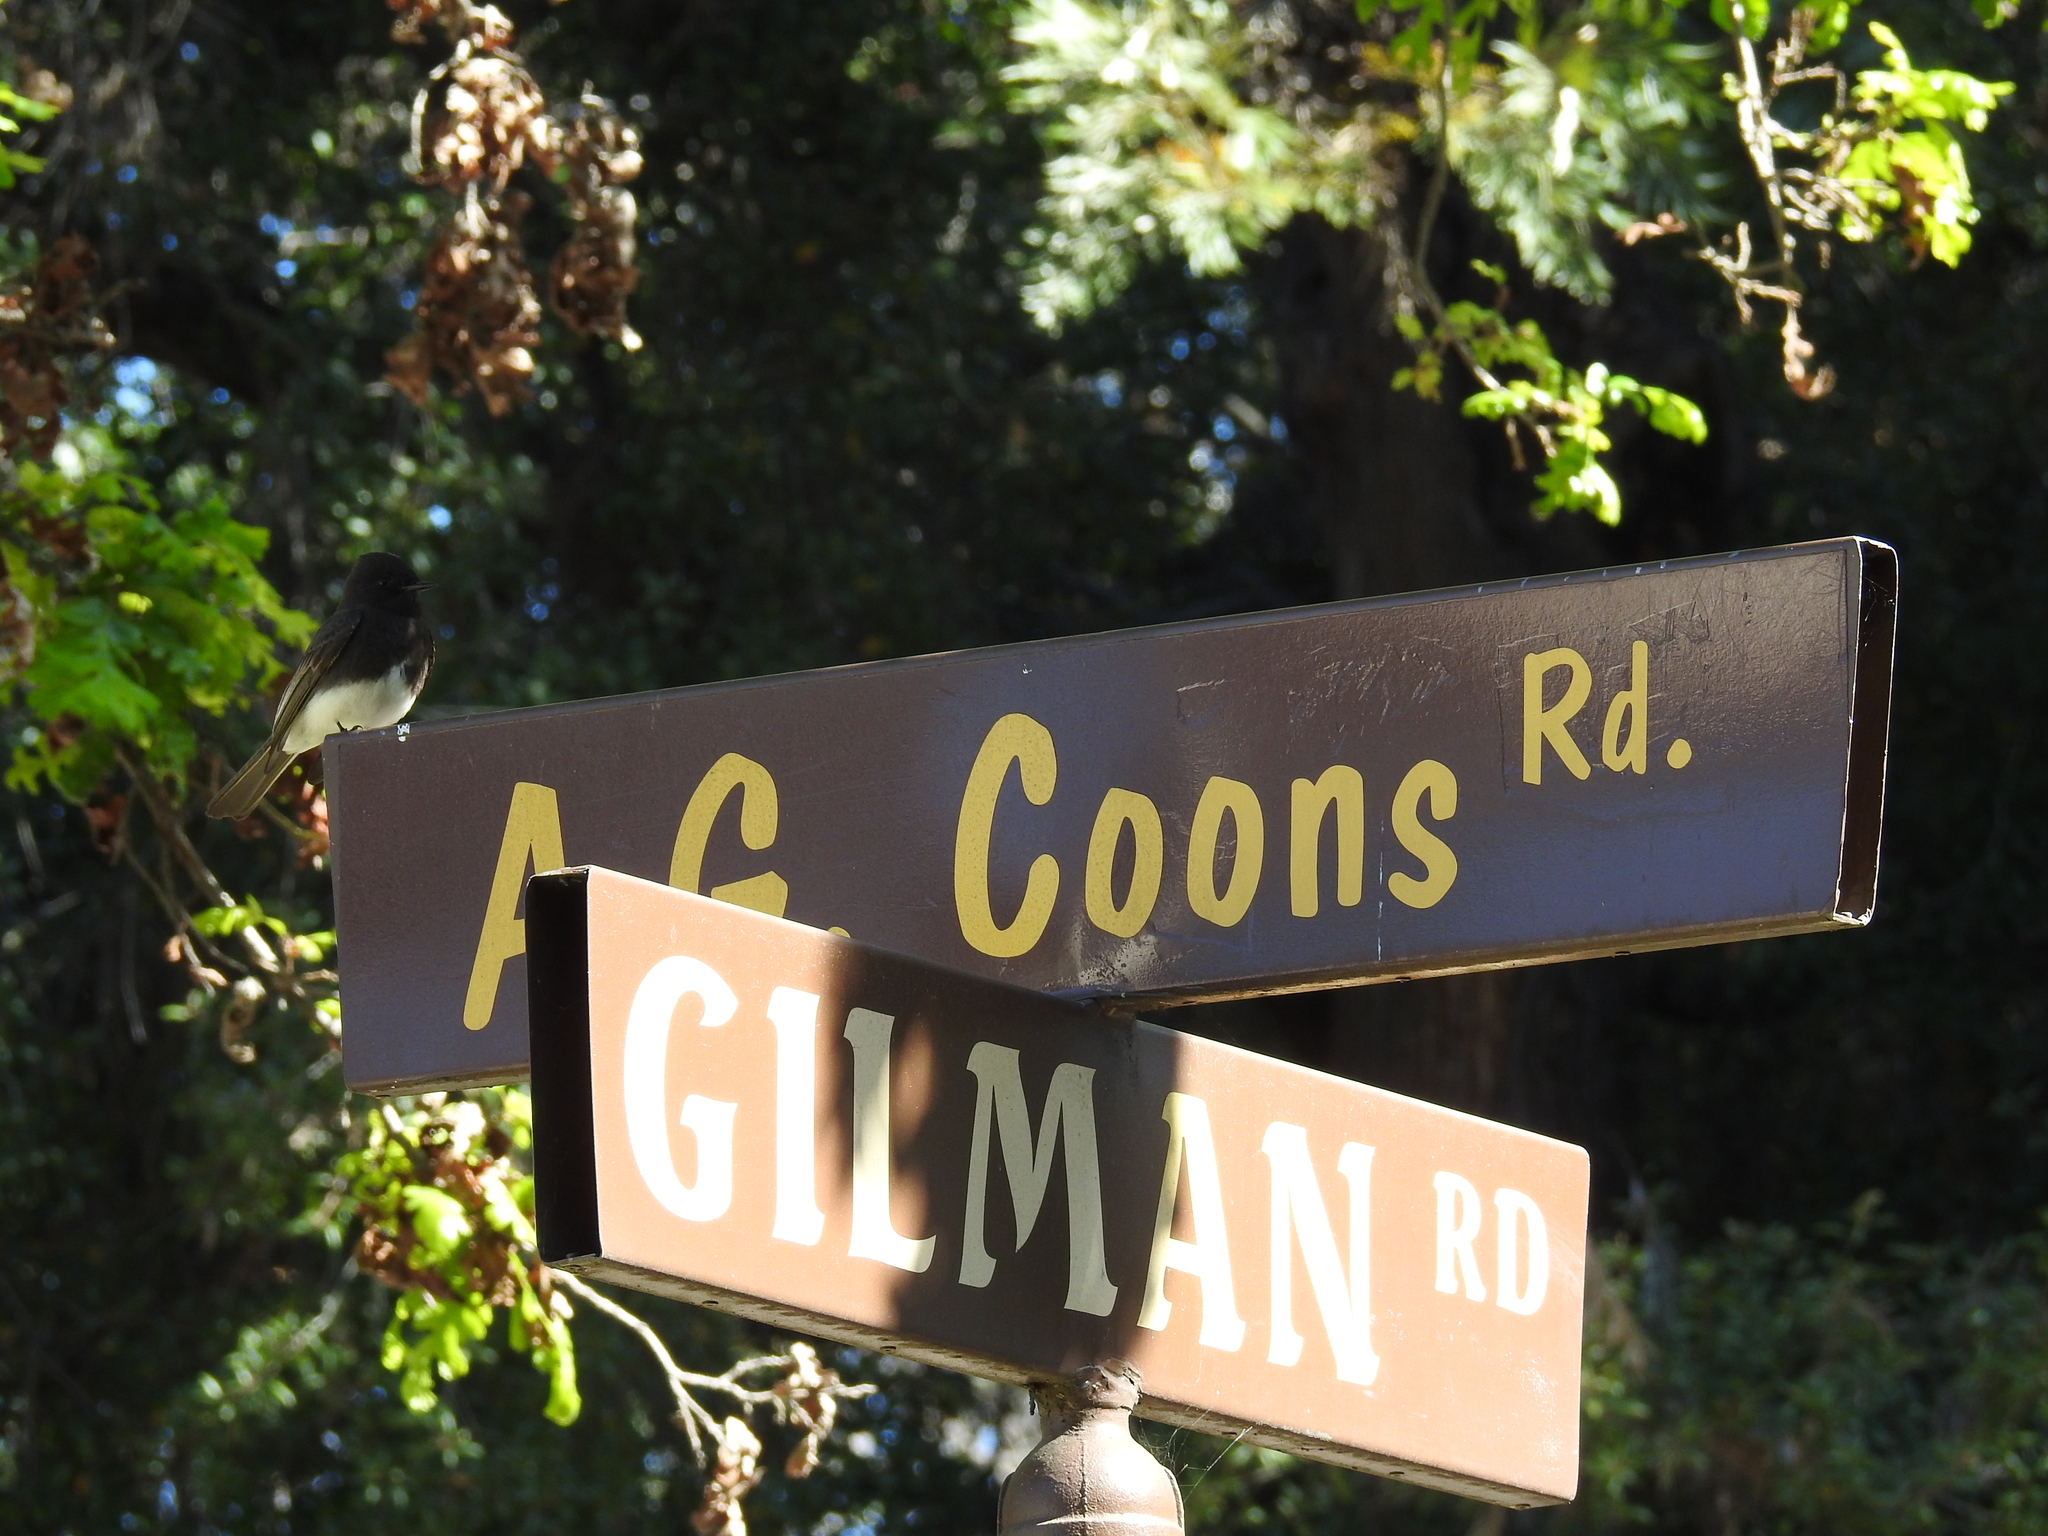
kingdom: Animalia
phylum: Chordata
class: Aves
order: Passeriformes
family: Tyrannidae
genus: Sayornis
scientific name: Sayornis nigricans
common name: Black phoebe
